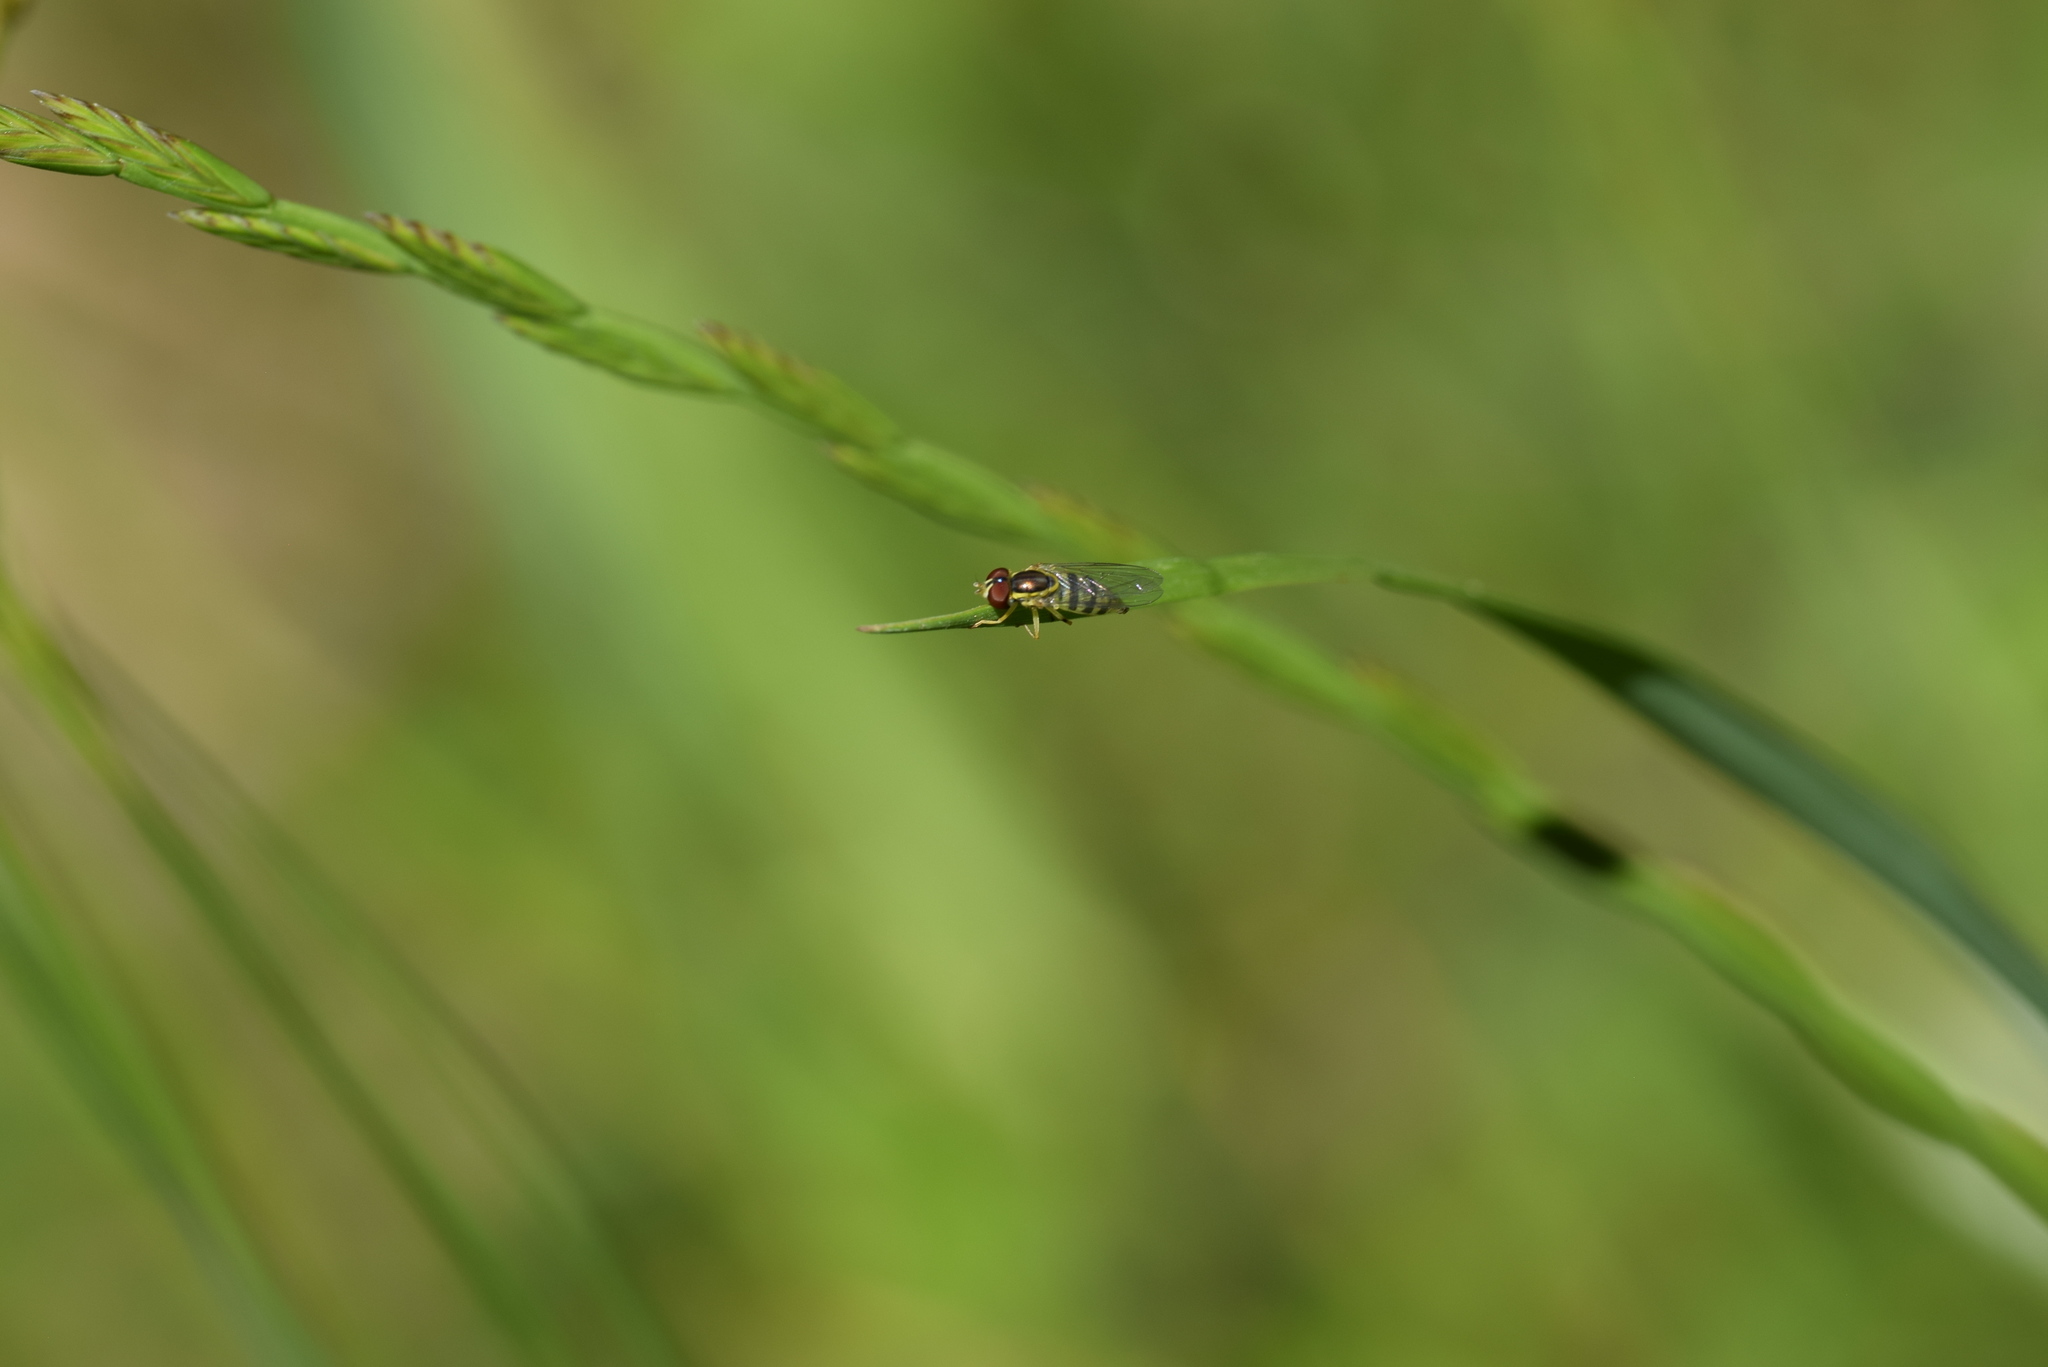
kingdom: Animalia
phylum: Arthropoda
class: Insecta
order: Diptera
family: Syrphidae
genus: Toxomerus
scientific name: Toxomerus geminatus
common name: Eastern calligrapher
